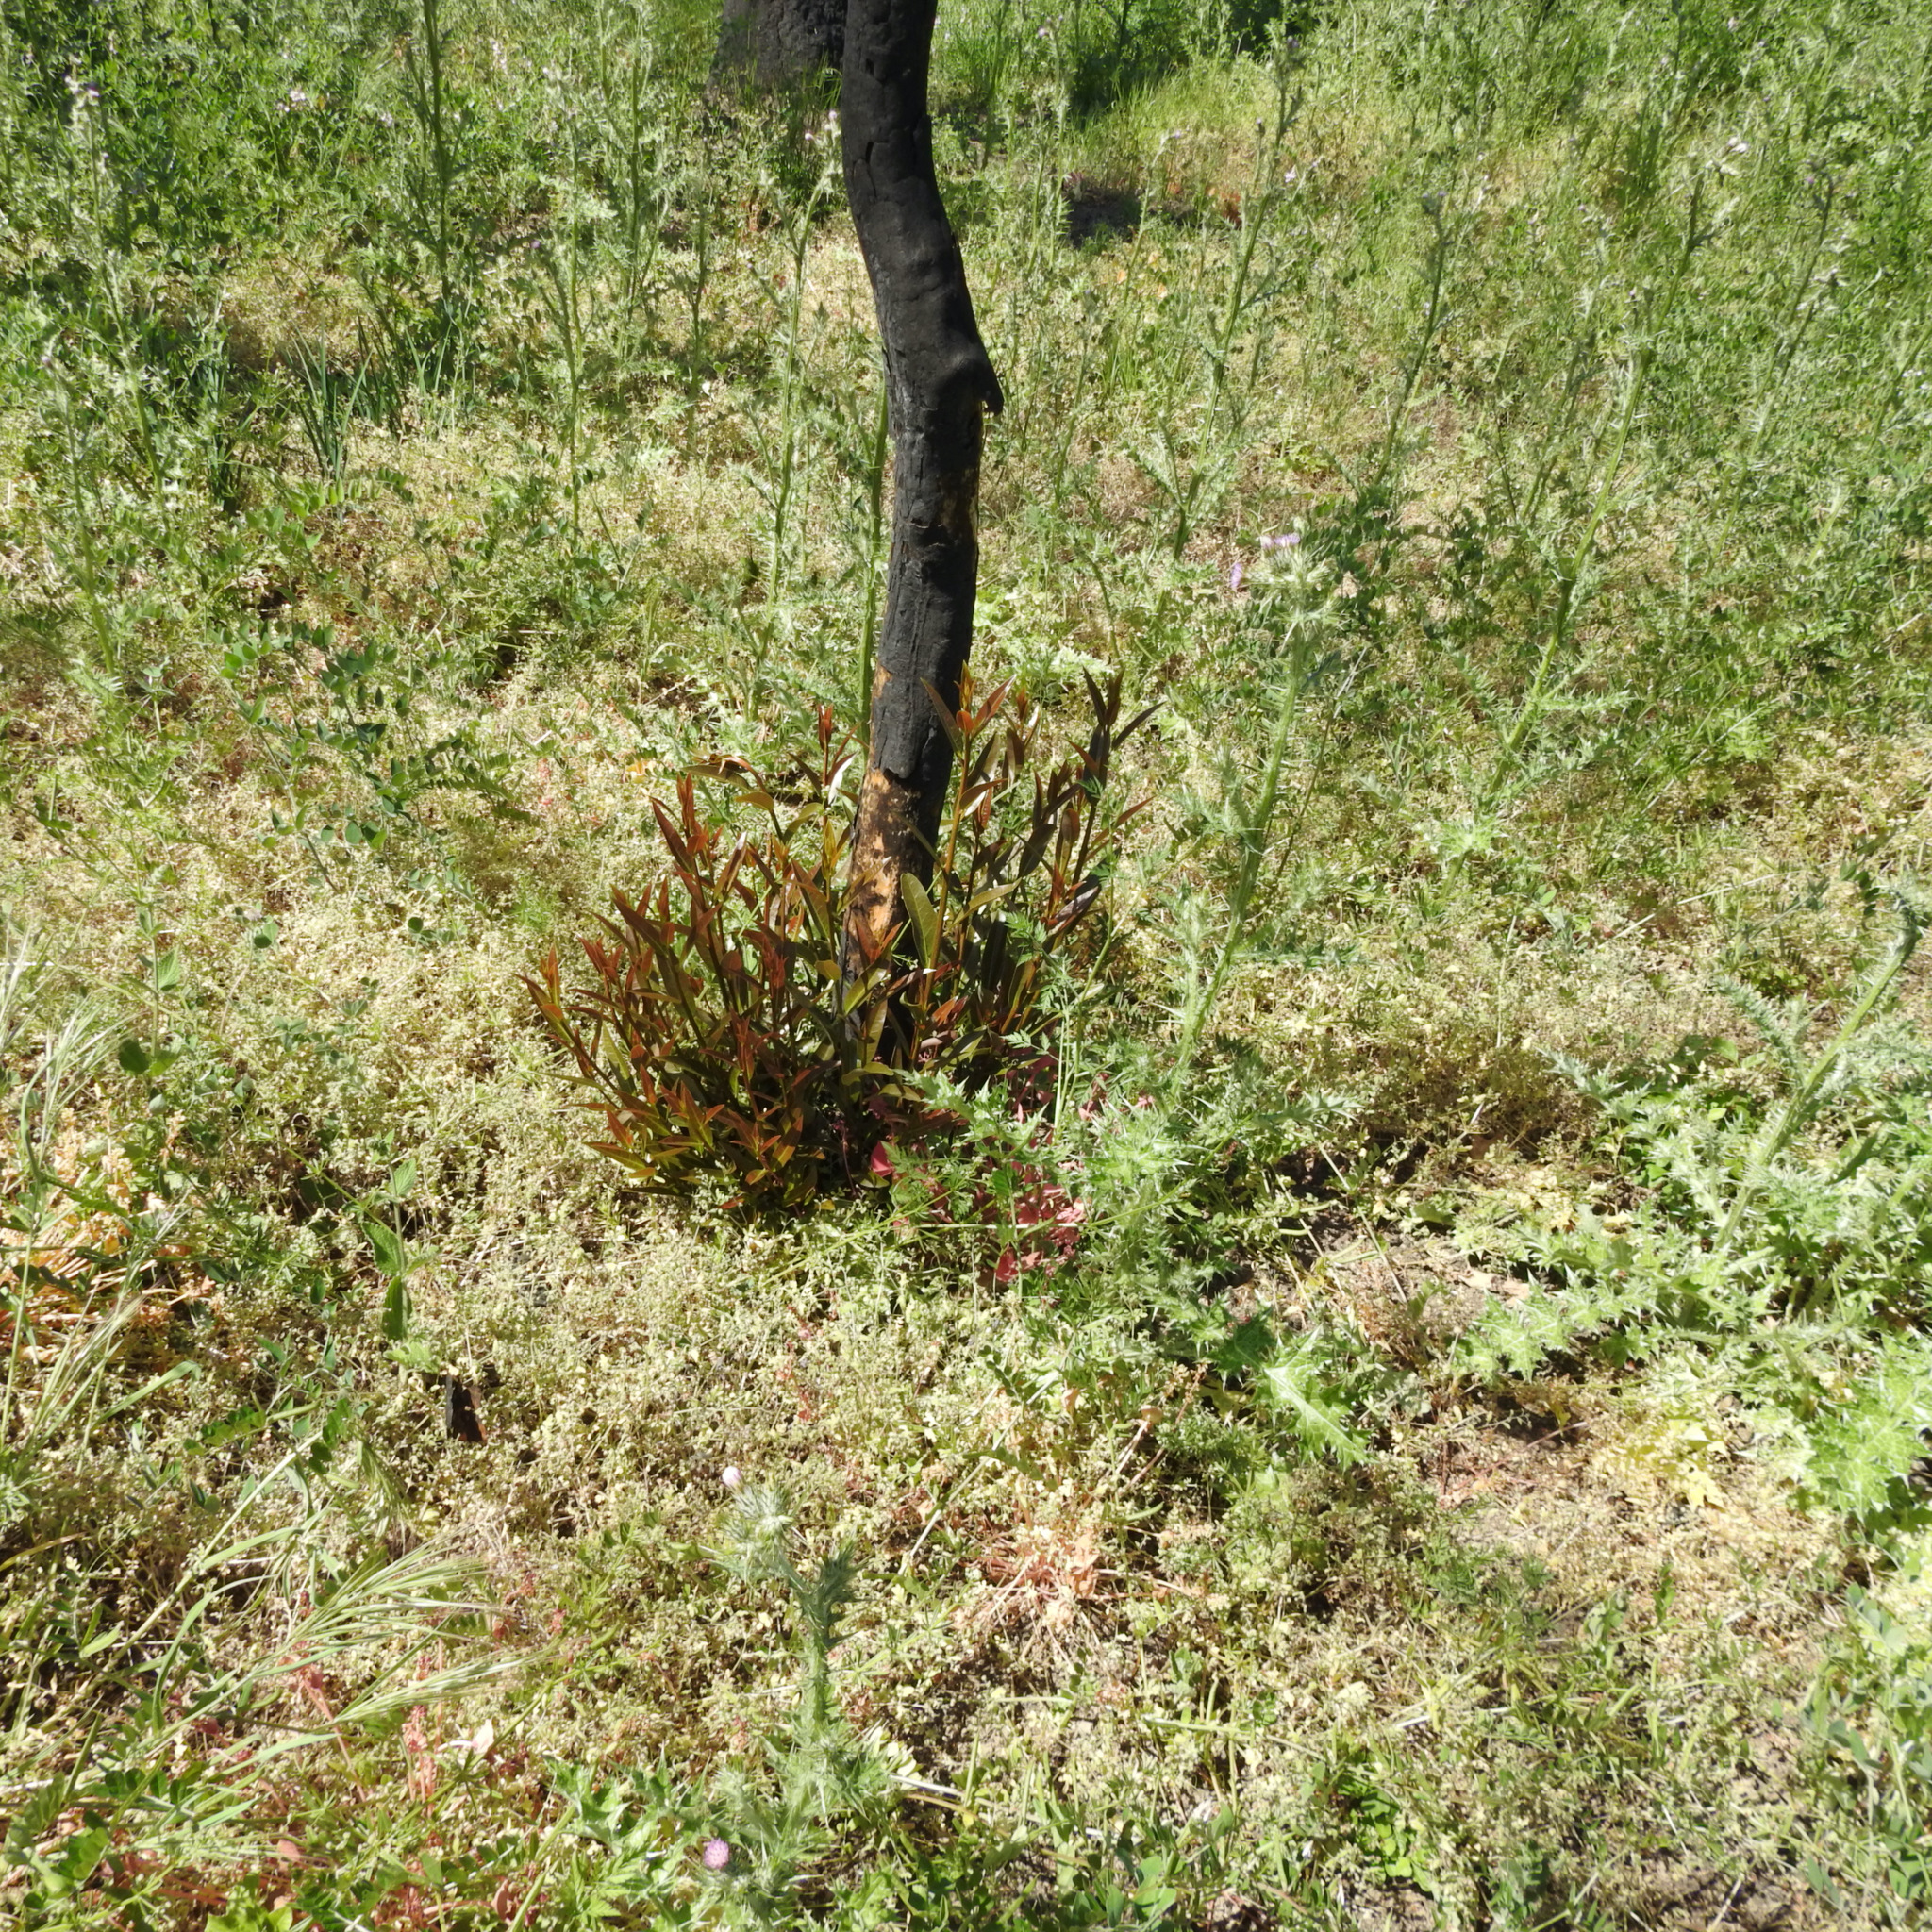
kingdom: Plantae
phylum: Tracheophyta
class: Magnoliopsida
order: Laurales
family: Lauraceae
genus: Umbellularia
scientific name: Umbellularia californica
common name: California bay
